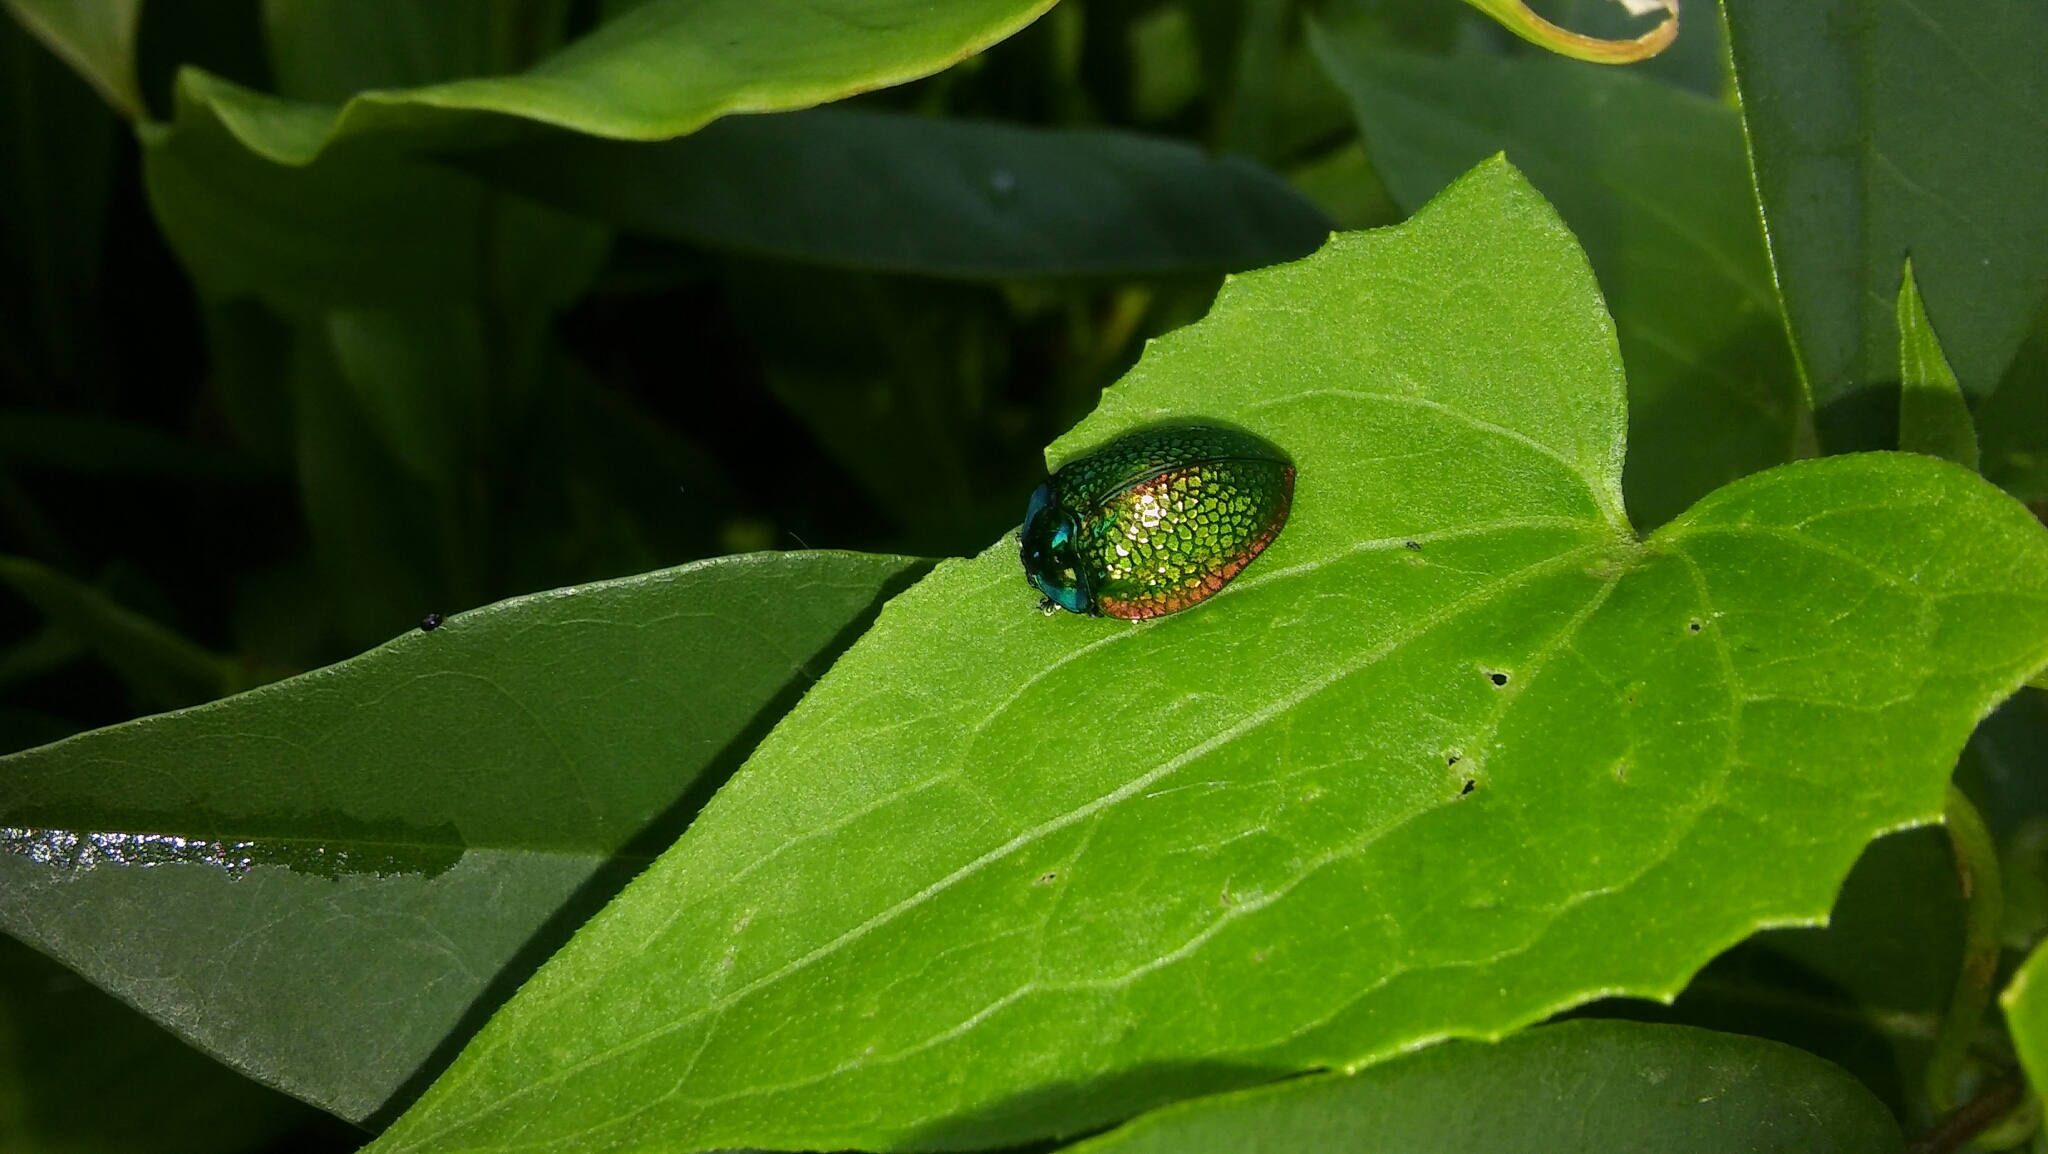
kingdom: Animalia
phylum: Arthropoda
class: Insecta
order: Coleoptera
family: Chrysomelidae
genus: Stolas
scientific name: Stolas festiva
